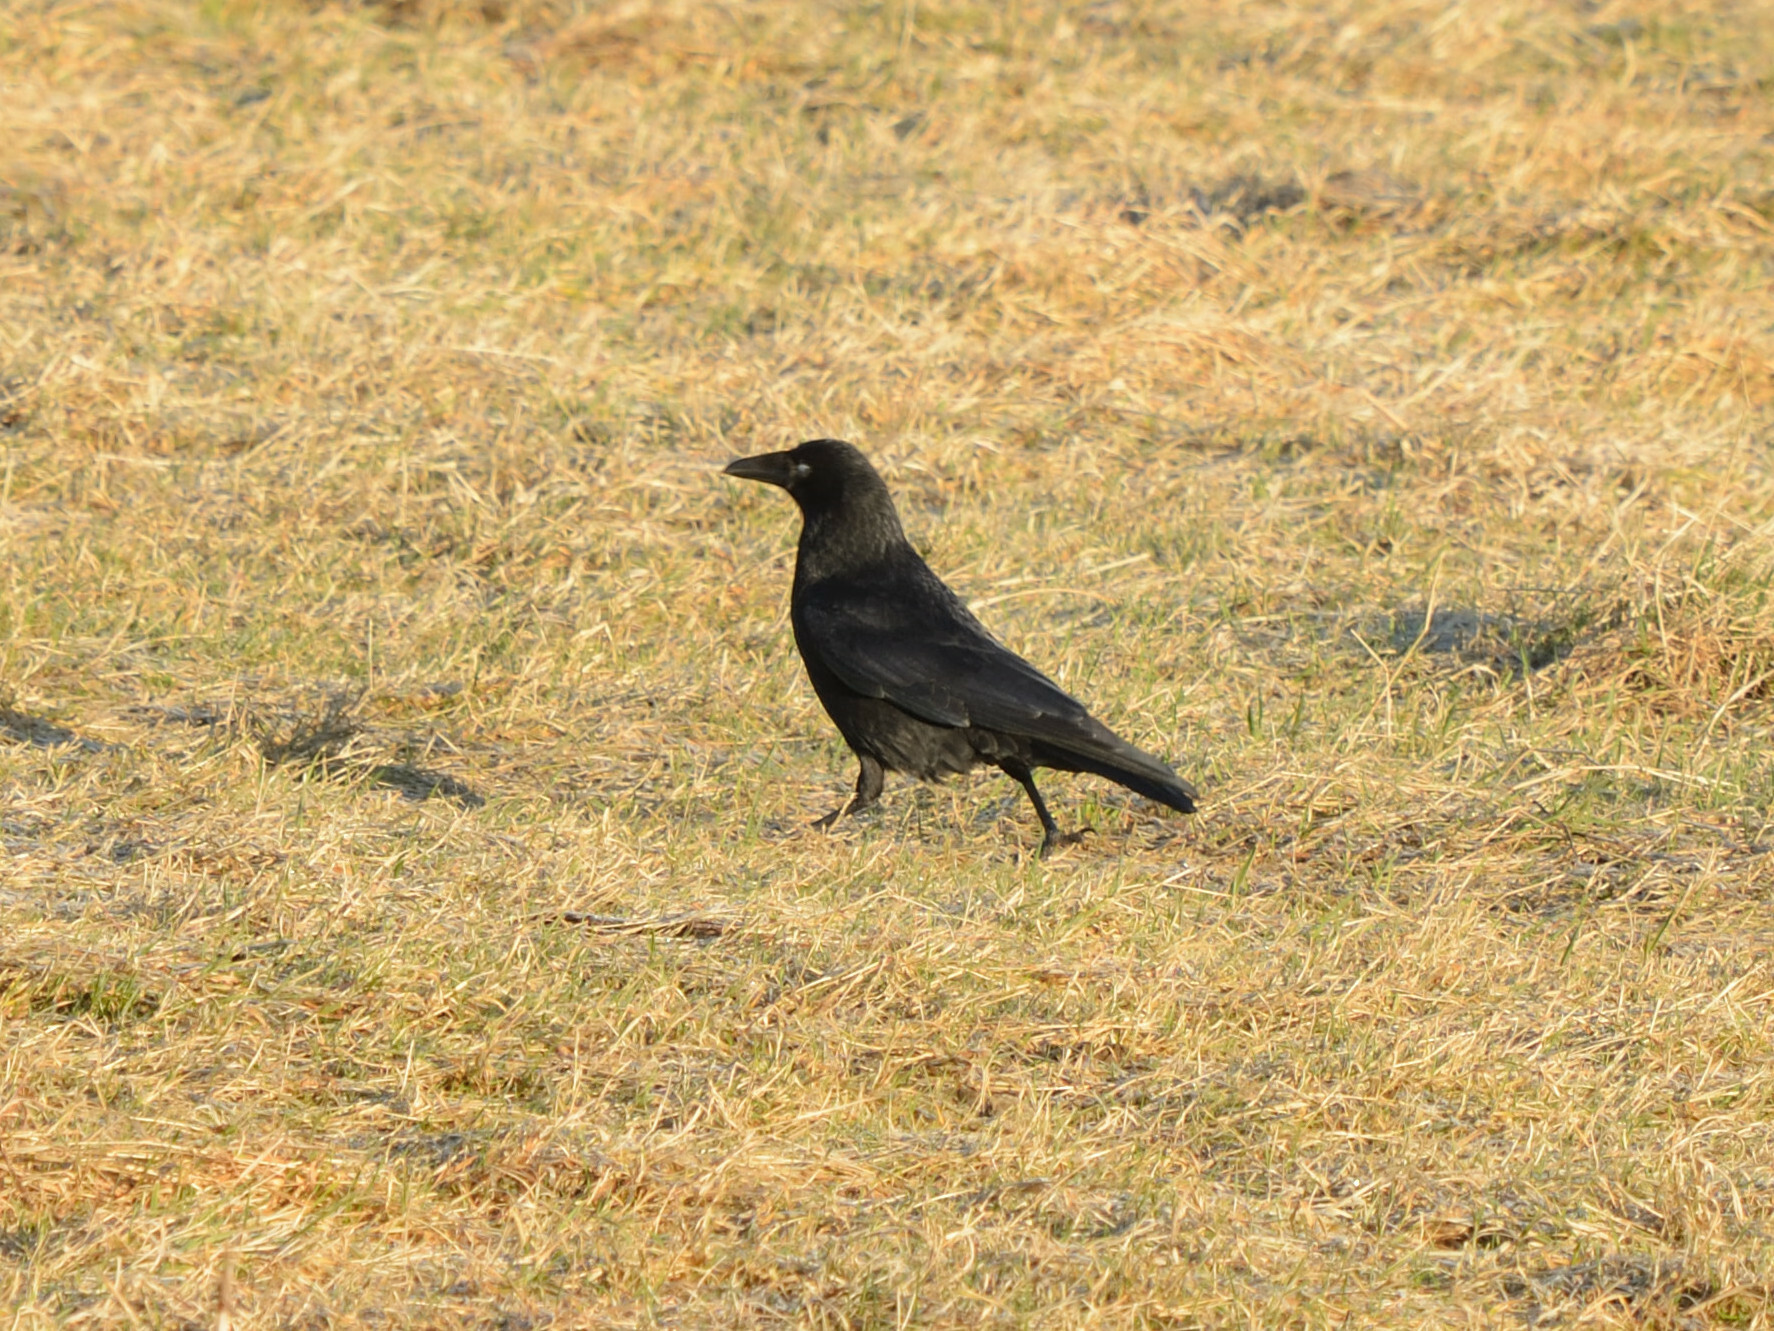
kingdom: Animalia
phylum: Chordata
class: Aves
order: Passeriformes
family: Corvidae
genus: Corvus
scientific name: Corvus corone
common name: Carrion crow
